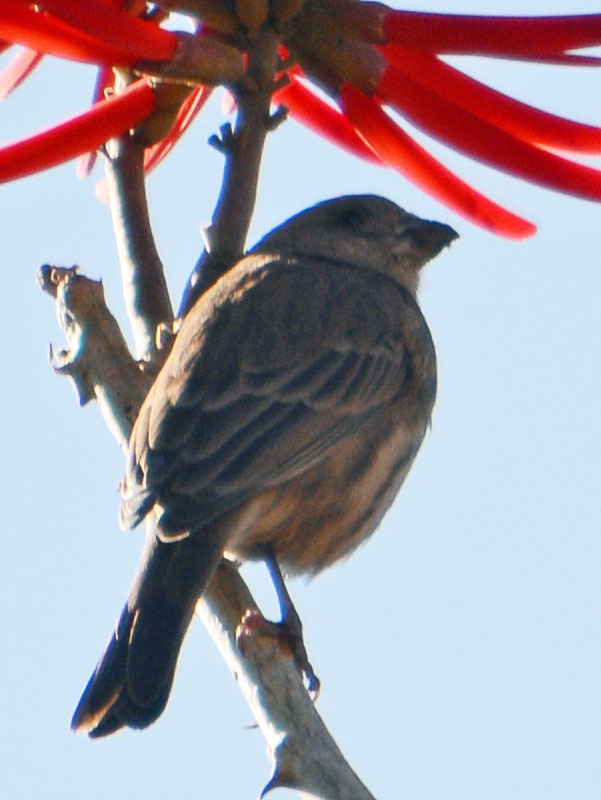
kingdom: Animalia
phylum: Chordata
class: Aves
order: Passeriformes
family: Fringillidae
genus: Haemorhous
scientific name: Haemorhous mexicanus
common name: House finch
